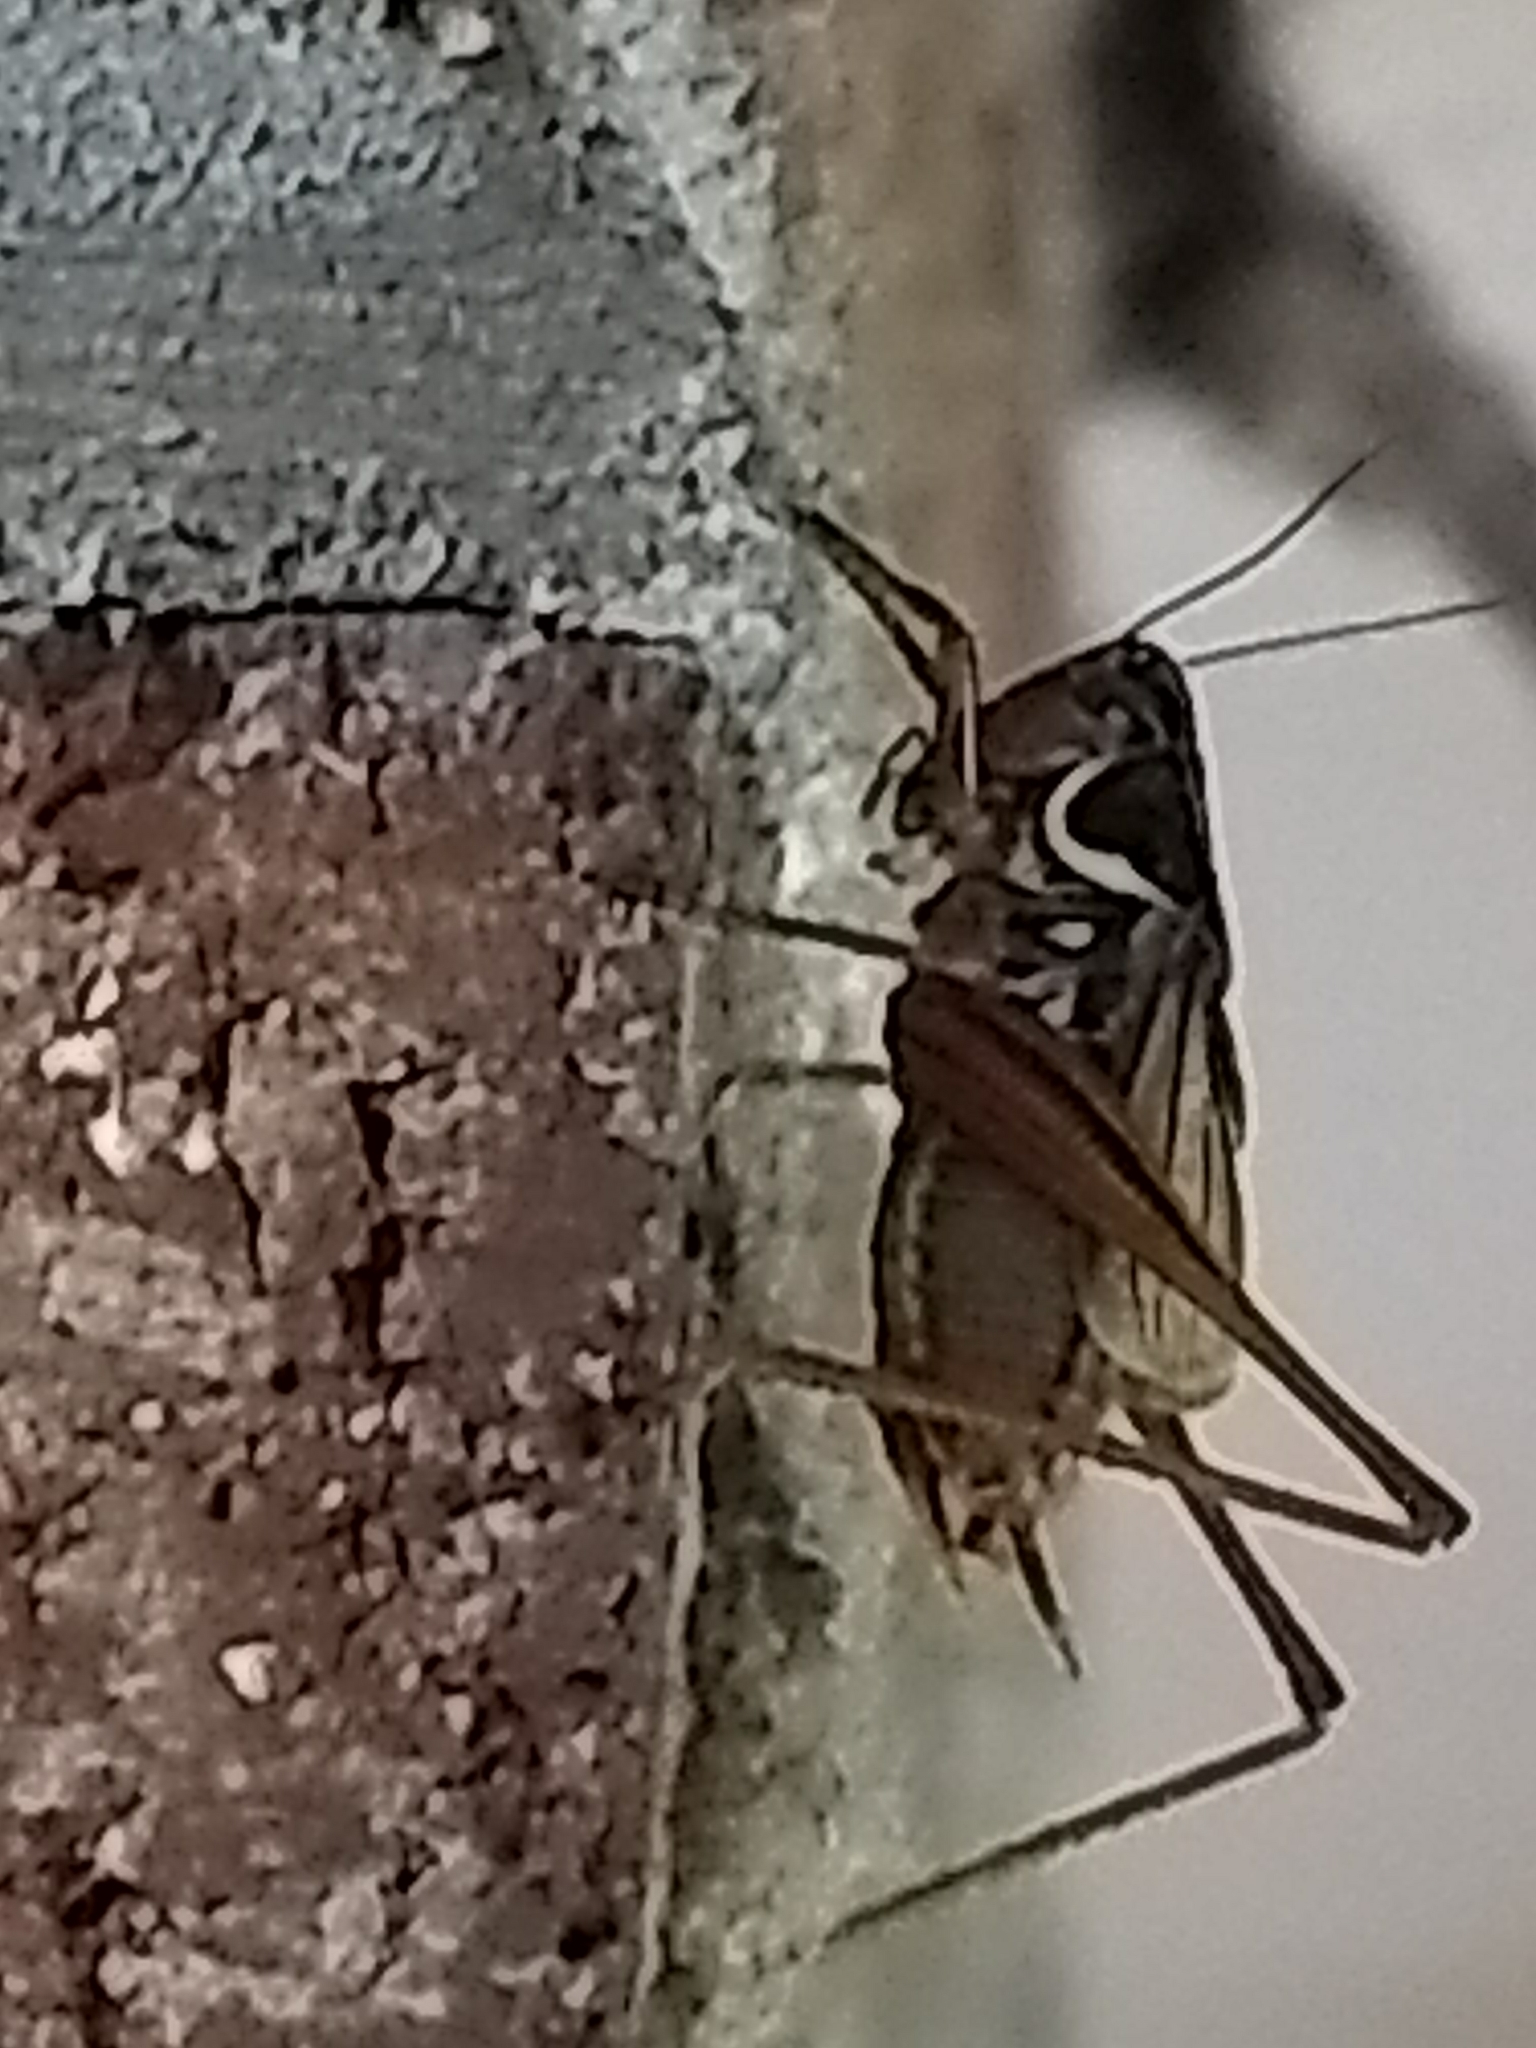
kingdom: Animalia
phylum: Arthropoda
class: Insecta
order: Orthoptera
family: Tettigoniidae
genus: Roeseliana
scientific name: Roeseliana roeselii
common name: Roesel's bush cricket
